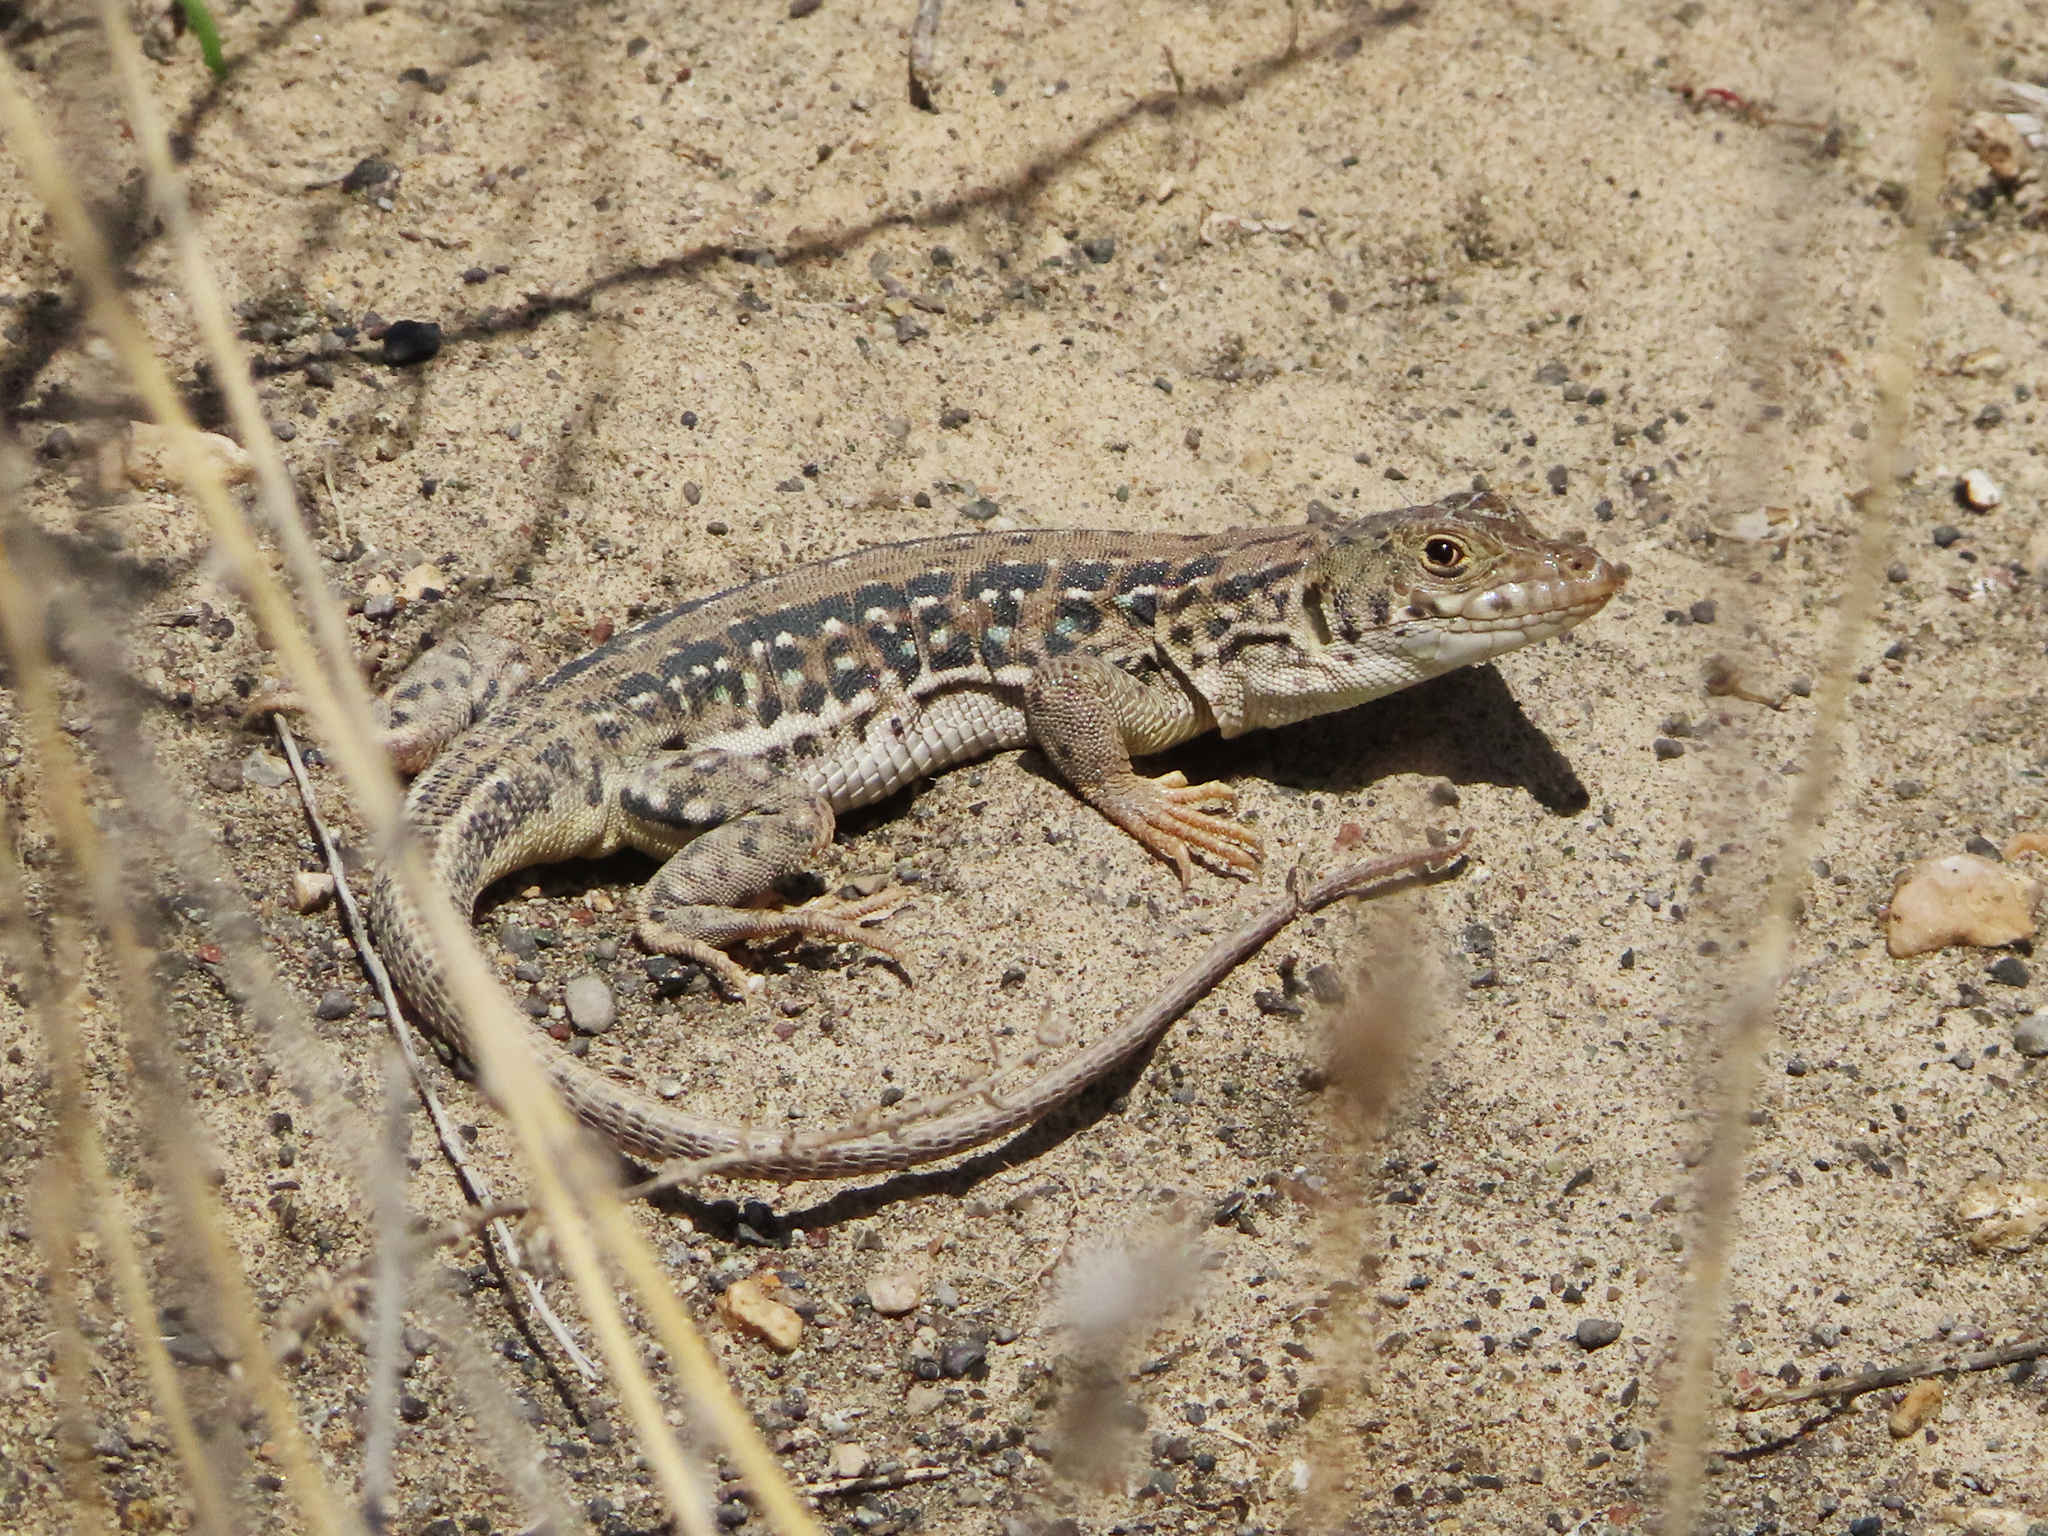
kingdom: Animalia
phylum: Chordata
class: Squamata
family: Lacertidae
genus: Eremias
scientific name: Eremias strauchi
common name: Strauch's racerunner
